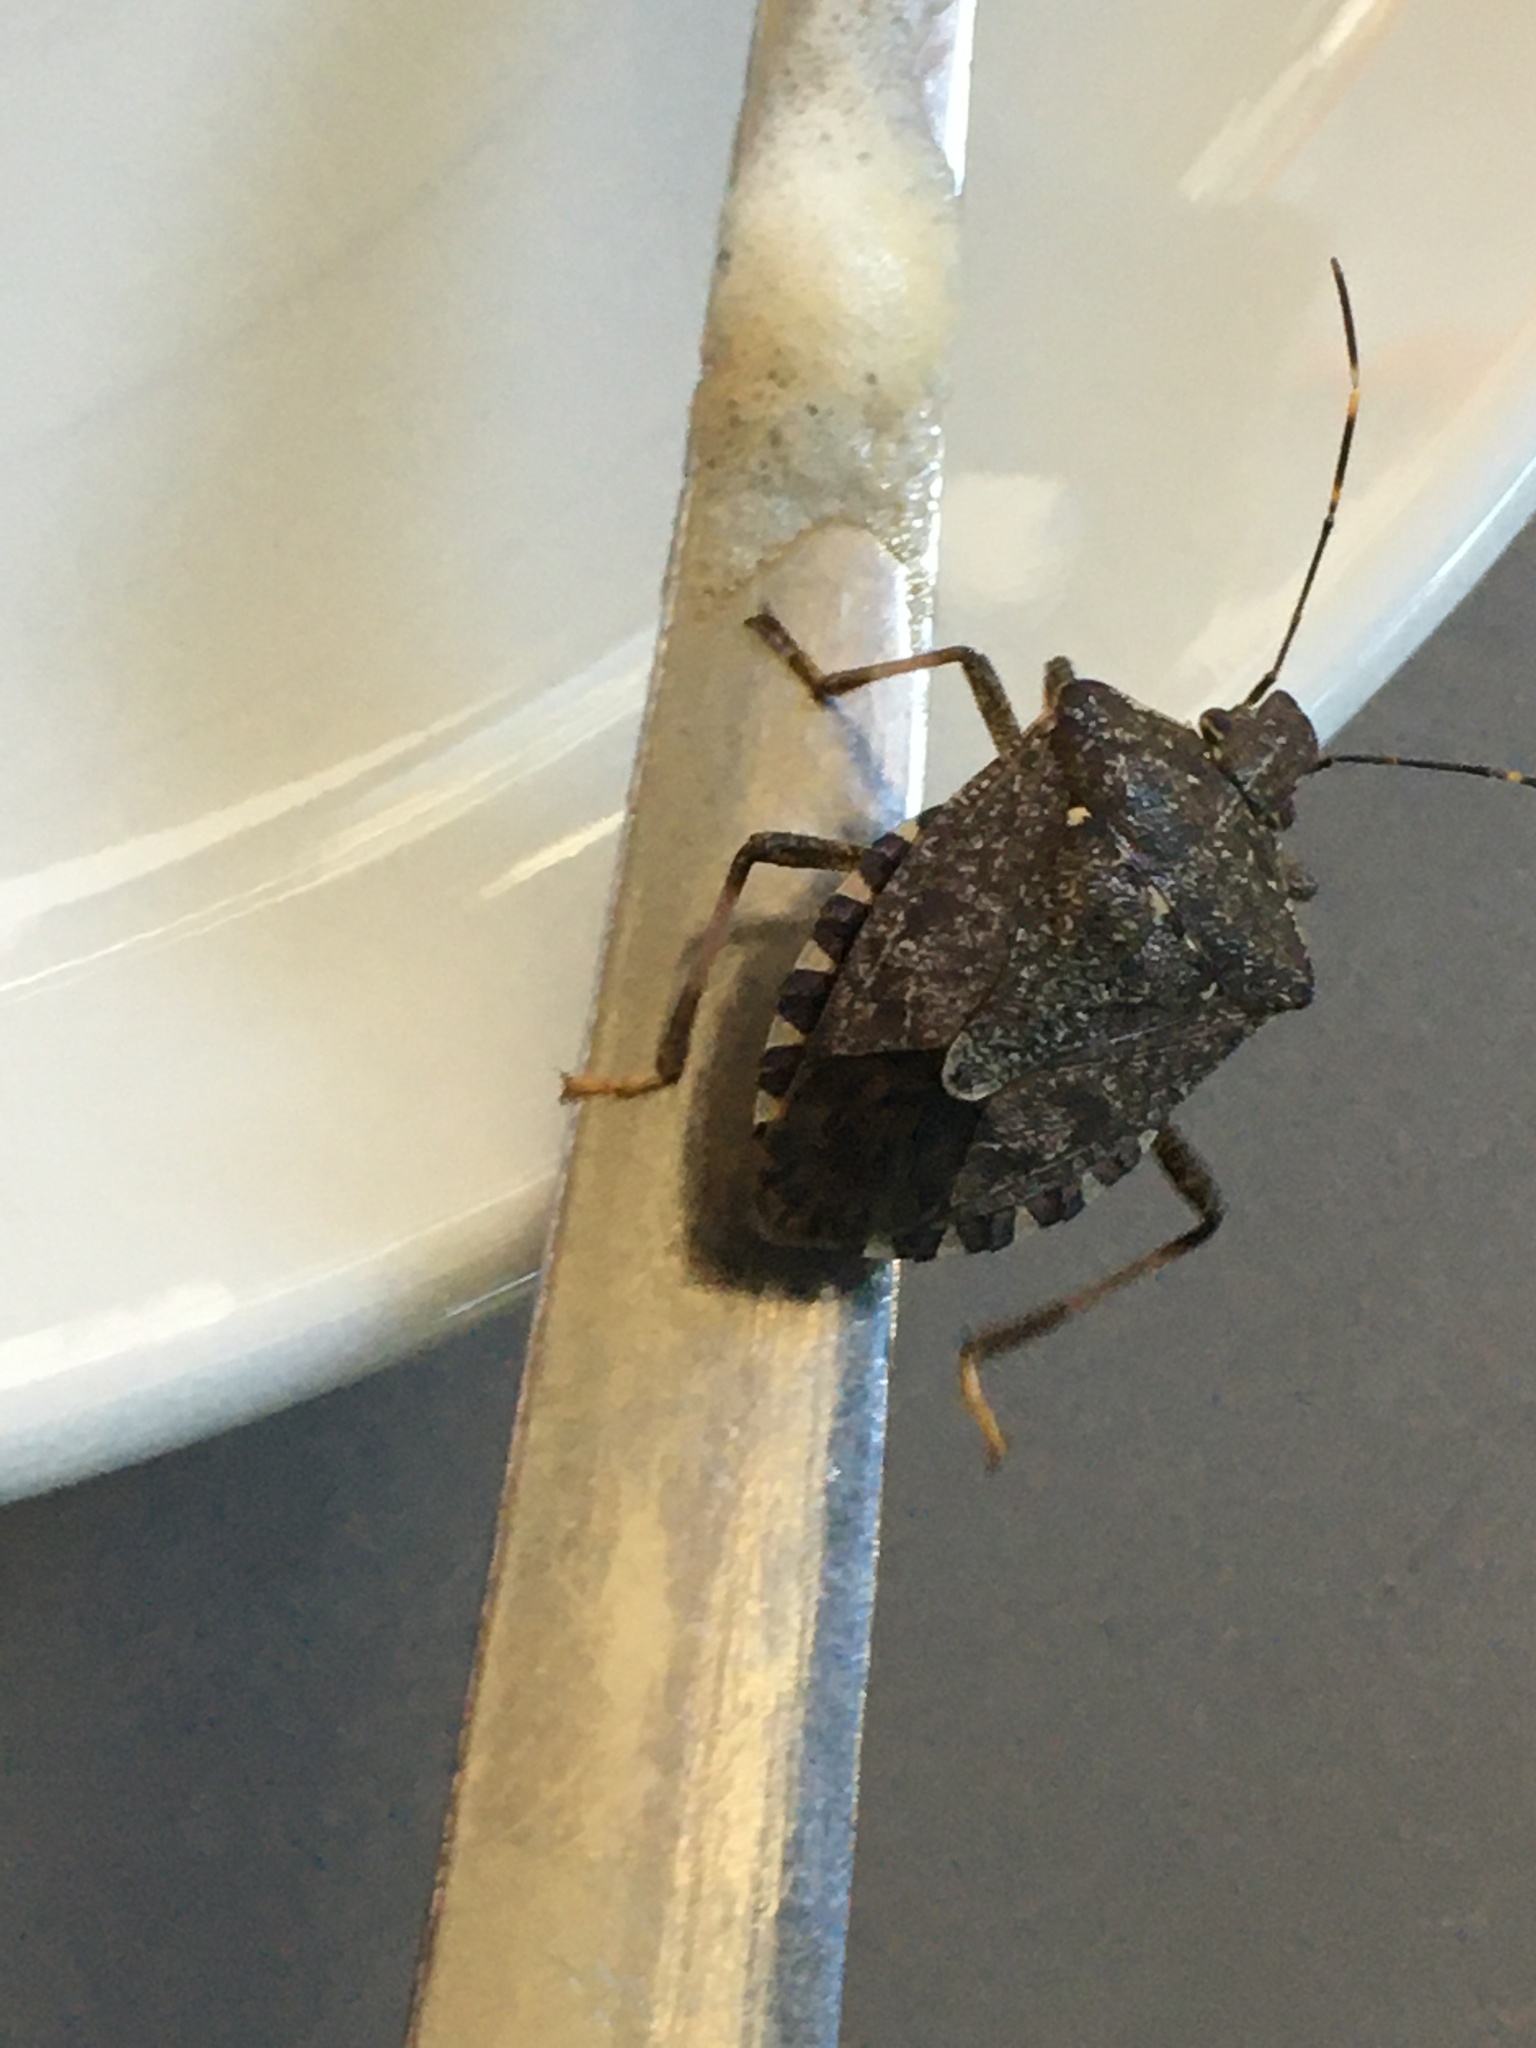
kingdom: Animalia
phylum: Arthropoda
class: Insecta
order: Hemiptera
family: Pentatomidae
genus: Halyomorpha
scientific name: Halyomorpha halys
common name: Brown marmorated stink bug
